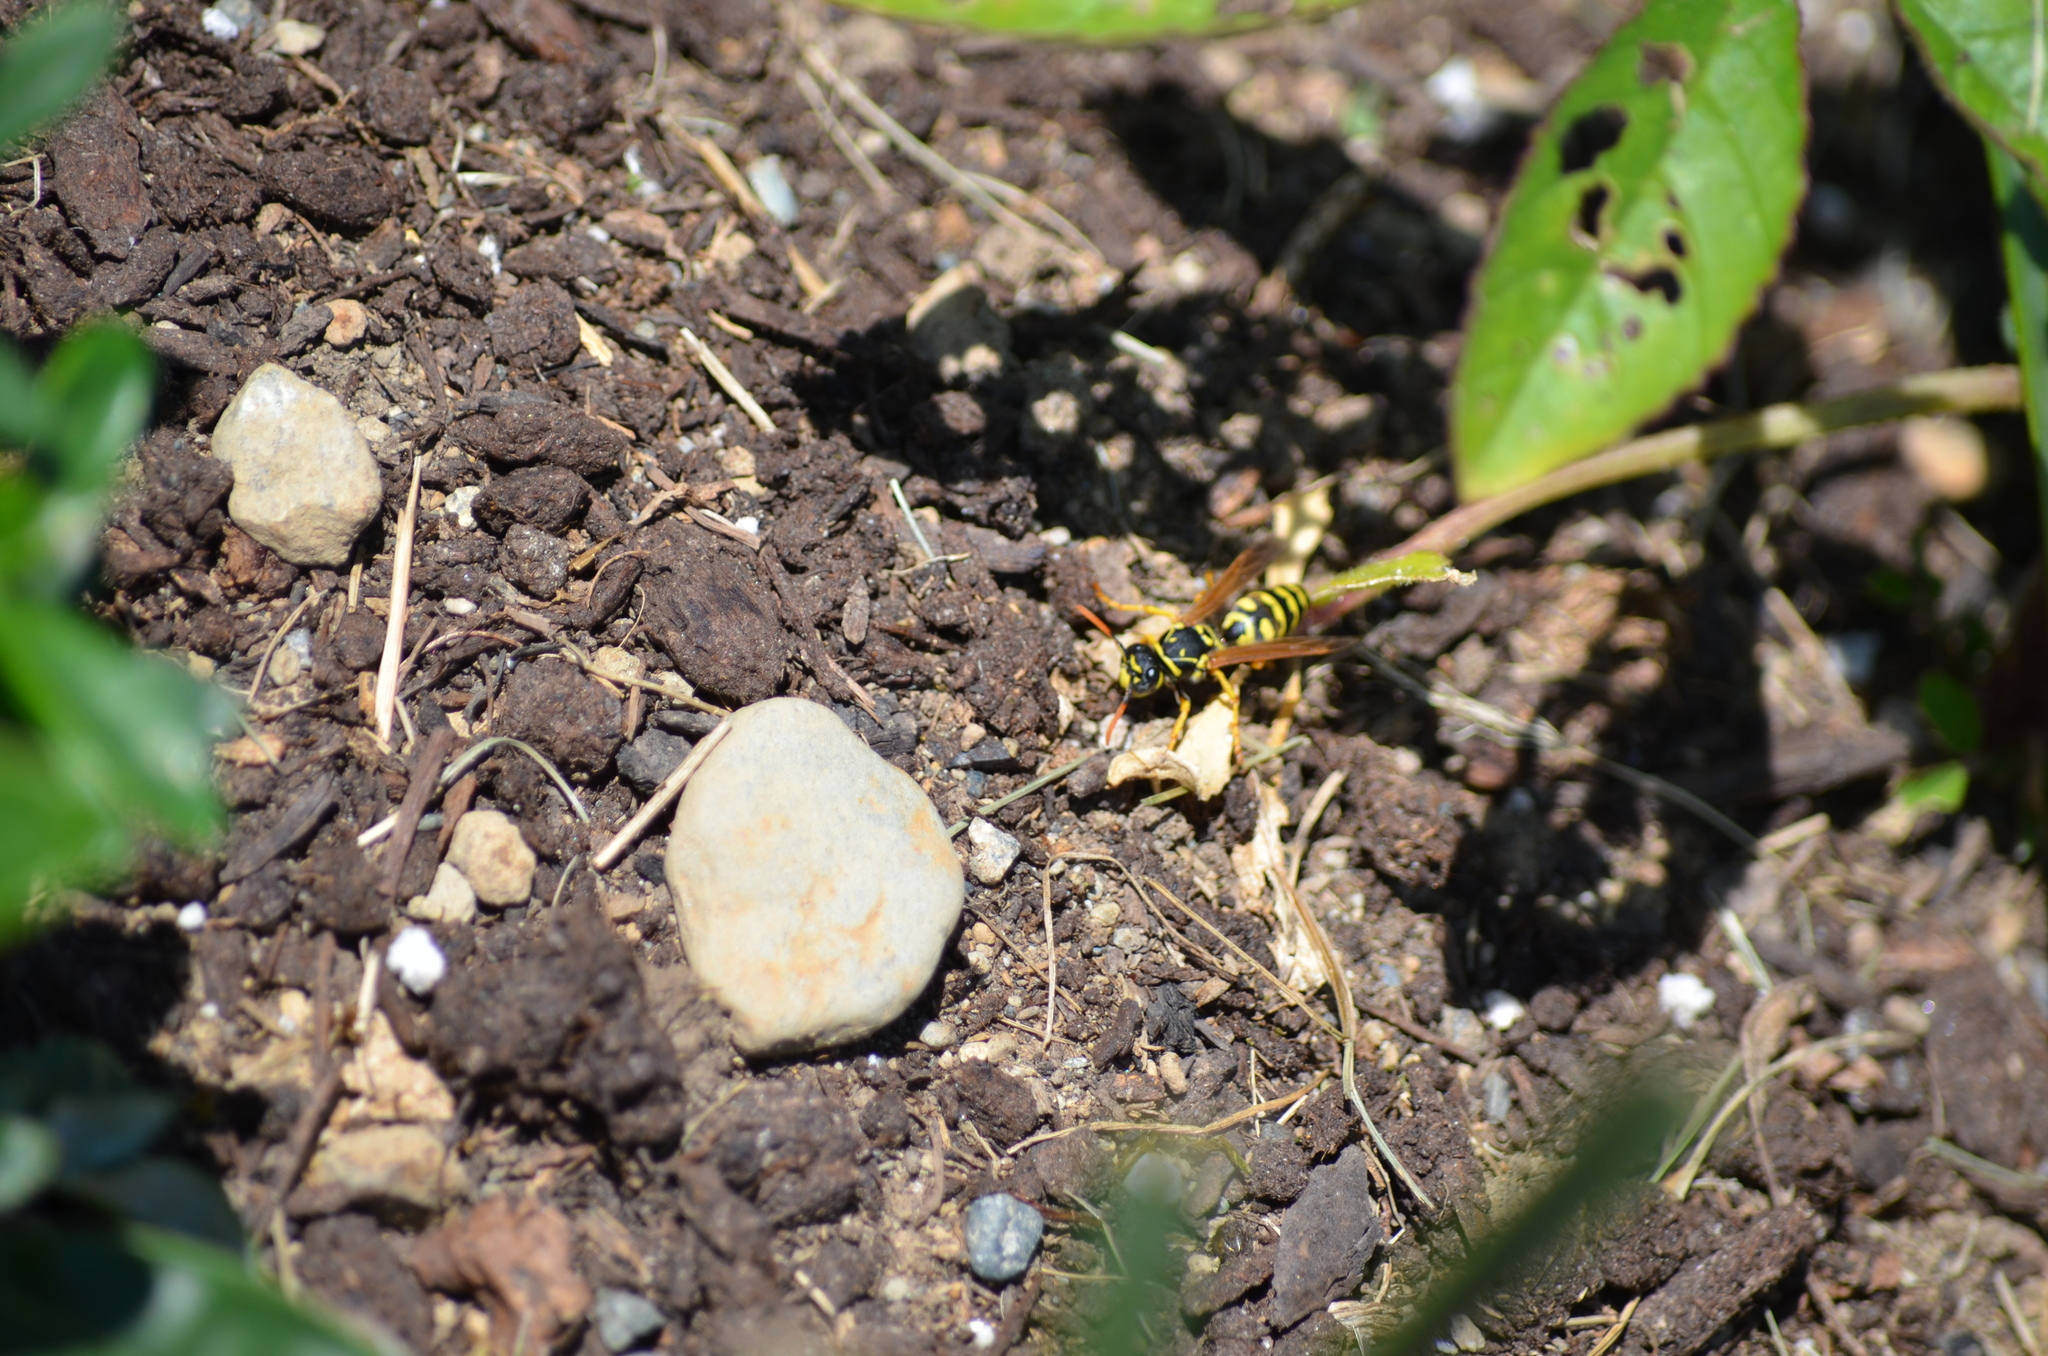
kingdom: Animalia
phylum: Arthropoda
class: Insecta
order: Hymenoptera
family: Eumenidae
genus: Polistes
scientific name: Polistes dominula
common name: Paper wasp
